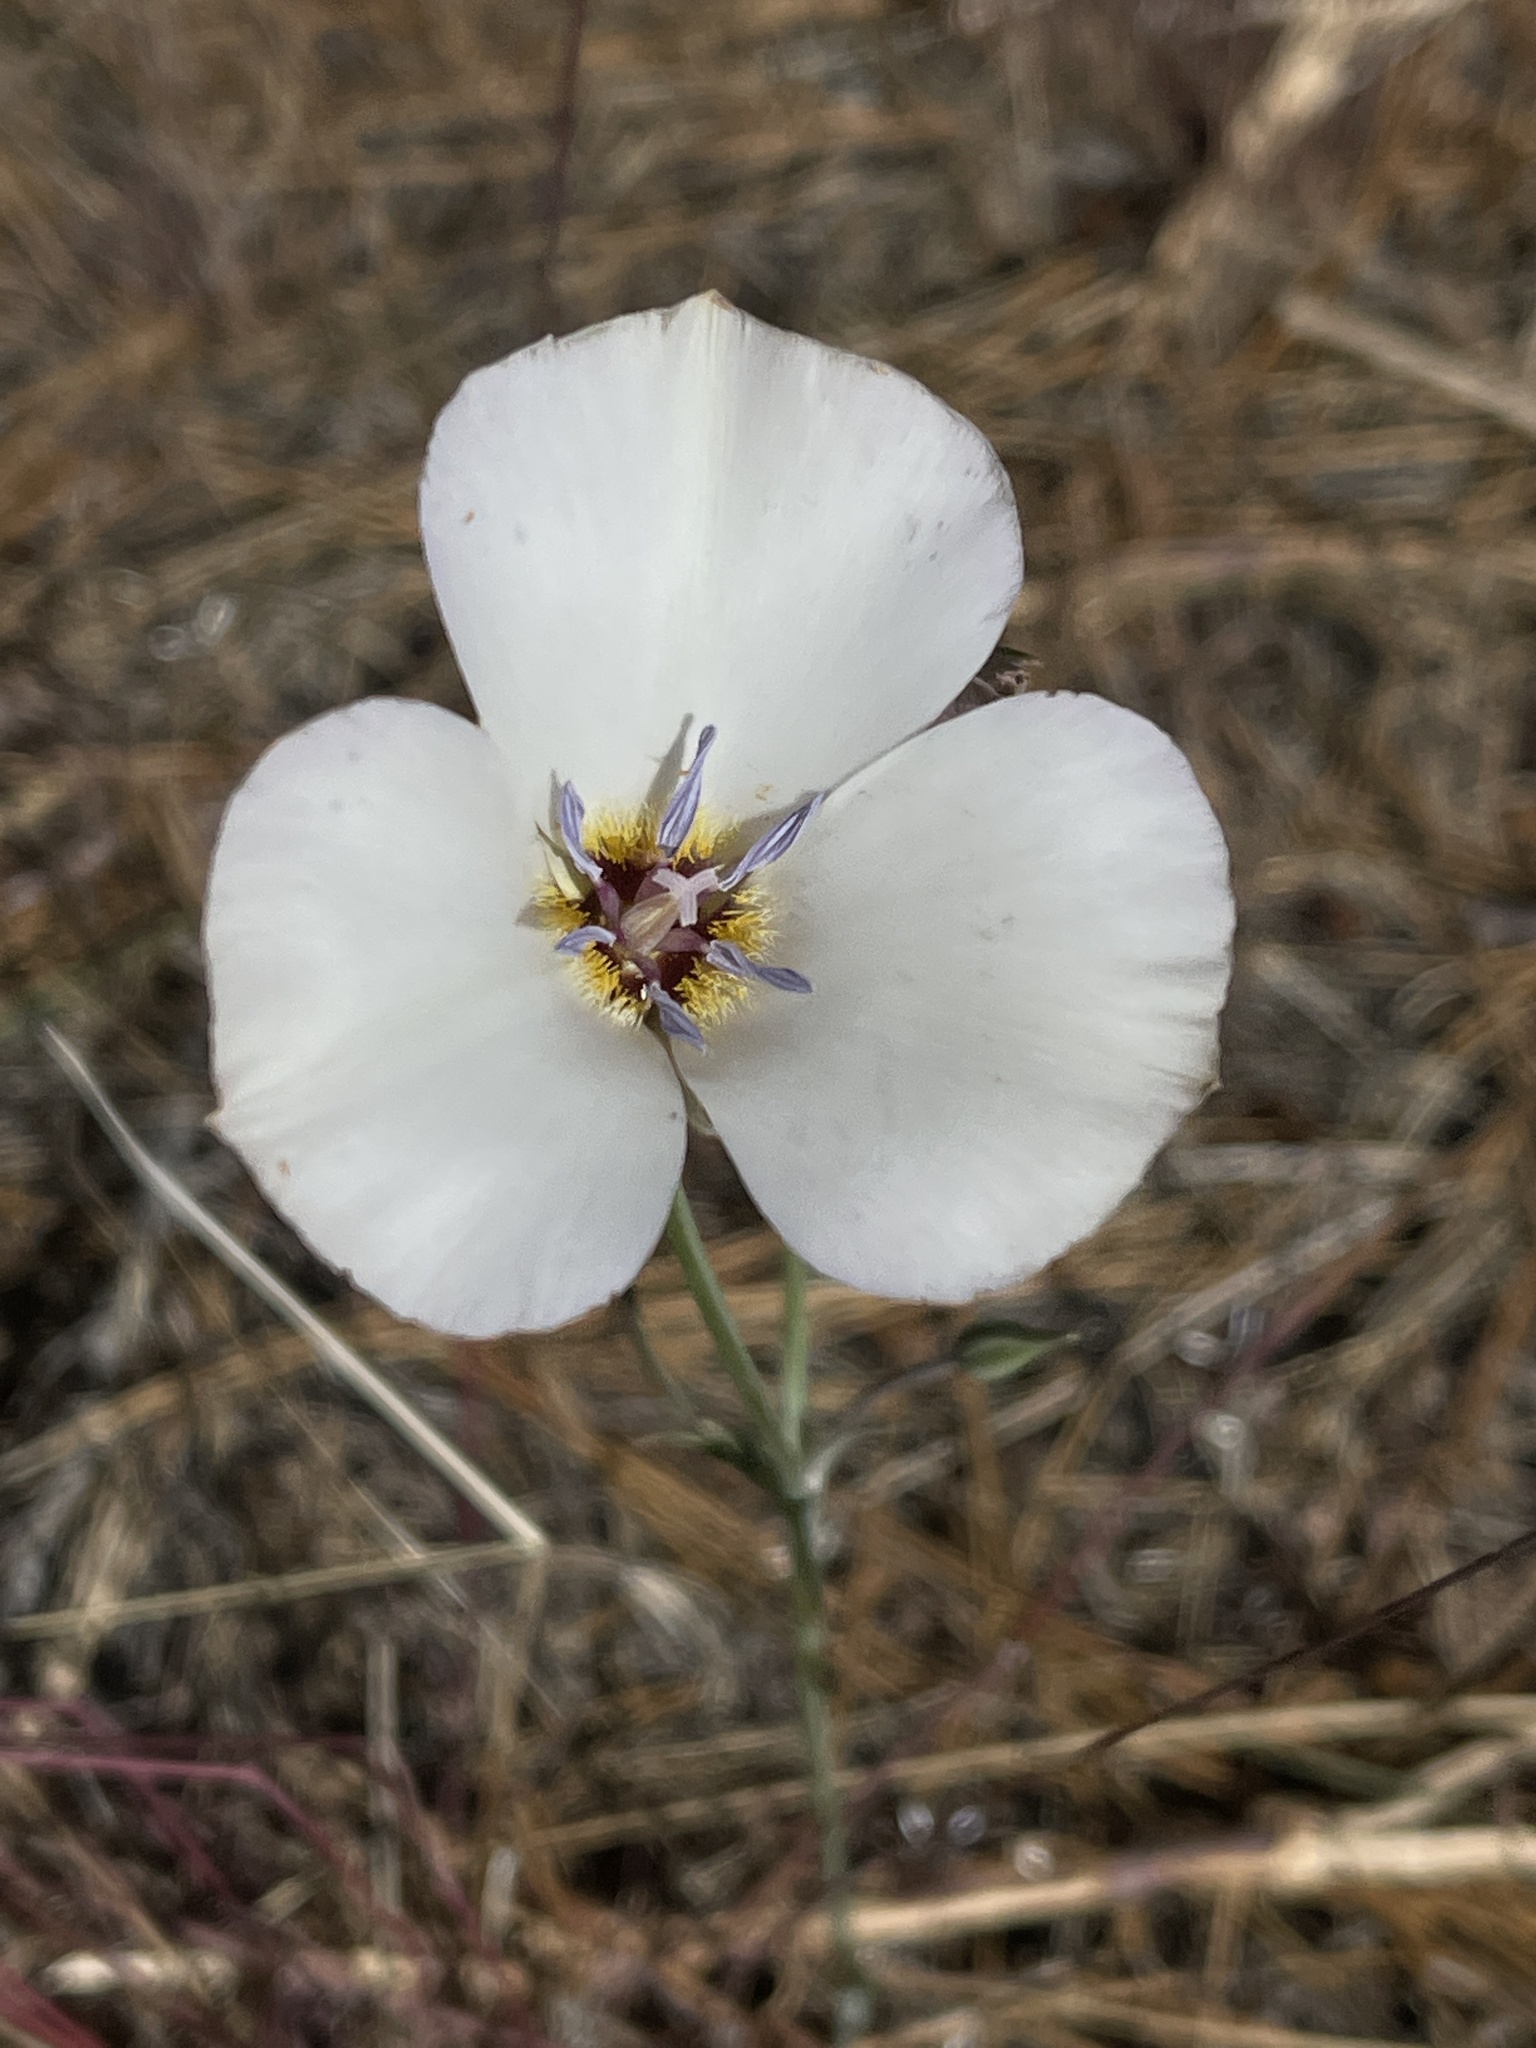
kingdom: Plantae
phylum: Tracheophyta
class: Liliopsida
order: Liliales
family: Liliaceae
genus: Calochortus
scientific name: Calochortus invenustus
